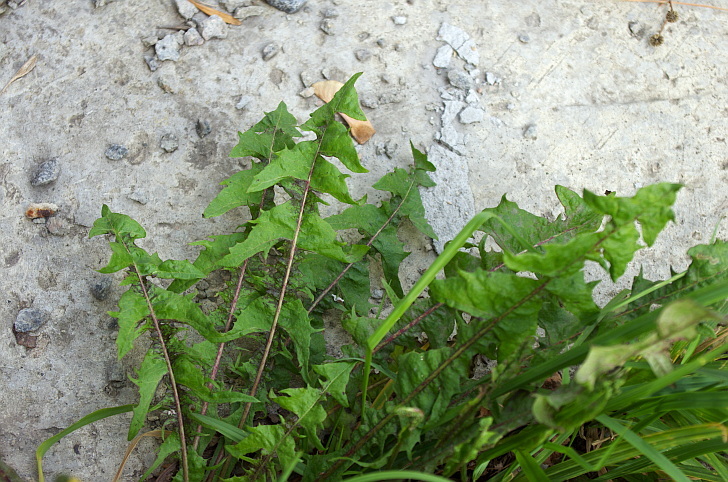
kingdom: Plantae
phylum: Tracheophyta
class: Magnoliopsida
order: Asterales
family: Asteraceae
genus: Taraxacum
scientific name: Taraxacum officinale
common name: Common dandelion
